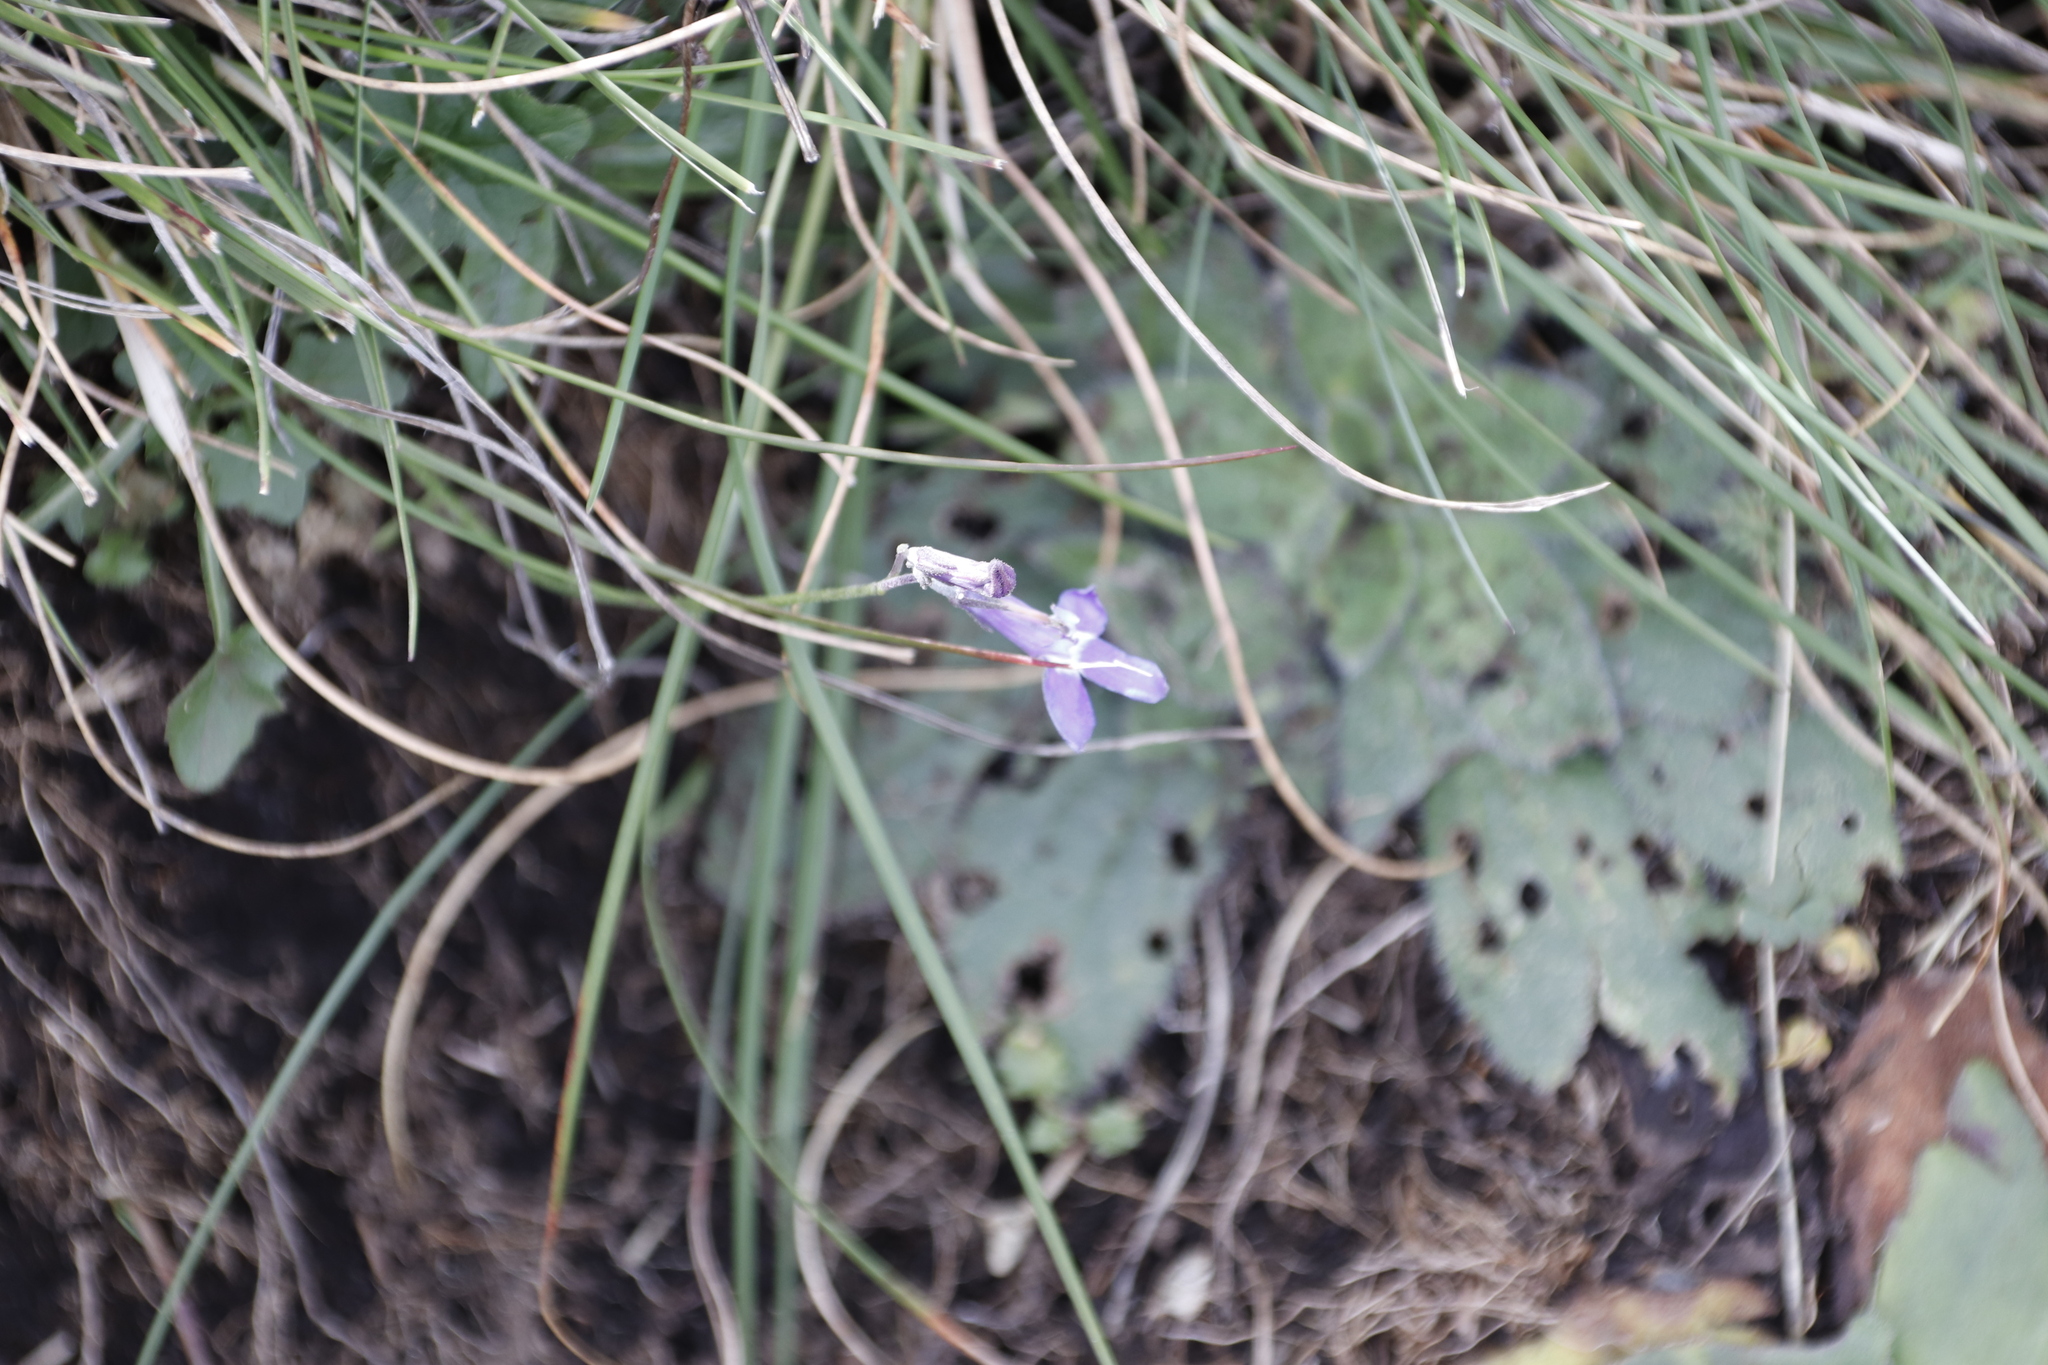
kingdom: Plantae
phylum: Tracheophyta
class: Magnoliopsida
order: Asterales
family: Campanulaceae
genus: Lobelia
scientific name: Lobelia preslii
